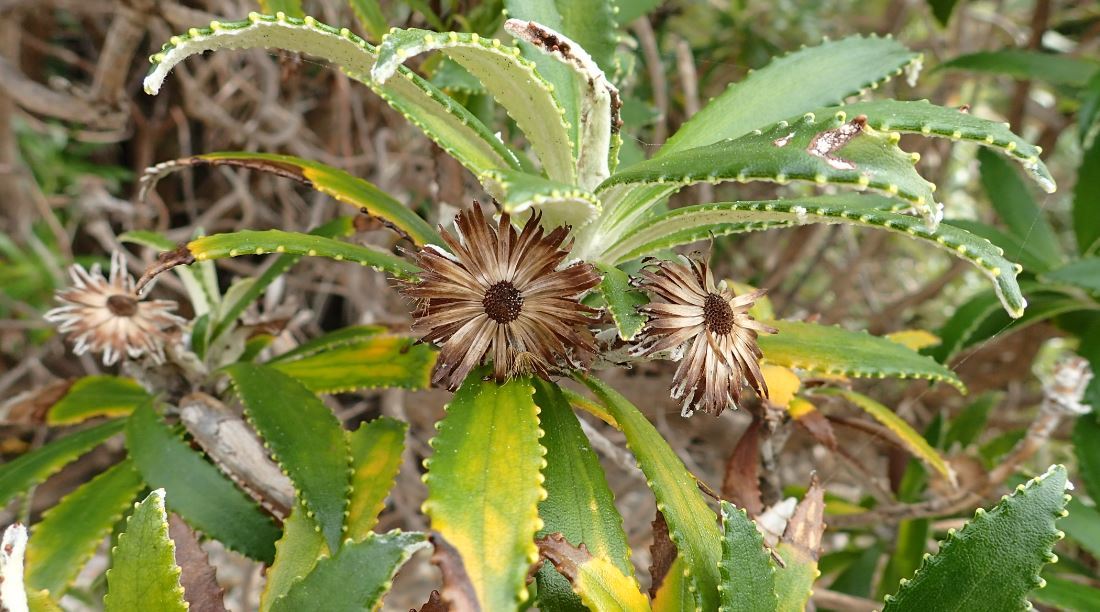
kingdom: Plantae
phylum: Tracheophyta
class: Magnoliopsida
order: Asterales
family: Asteraceae
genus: Macrolearia
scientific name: Macrolearia angustifolia
